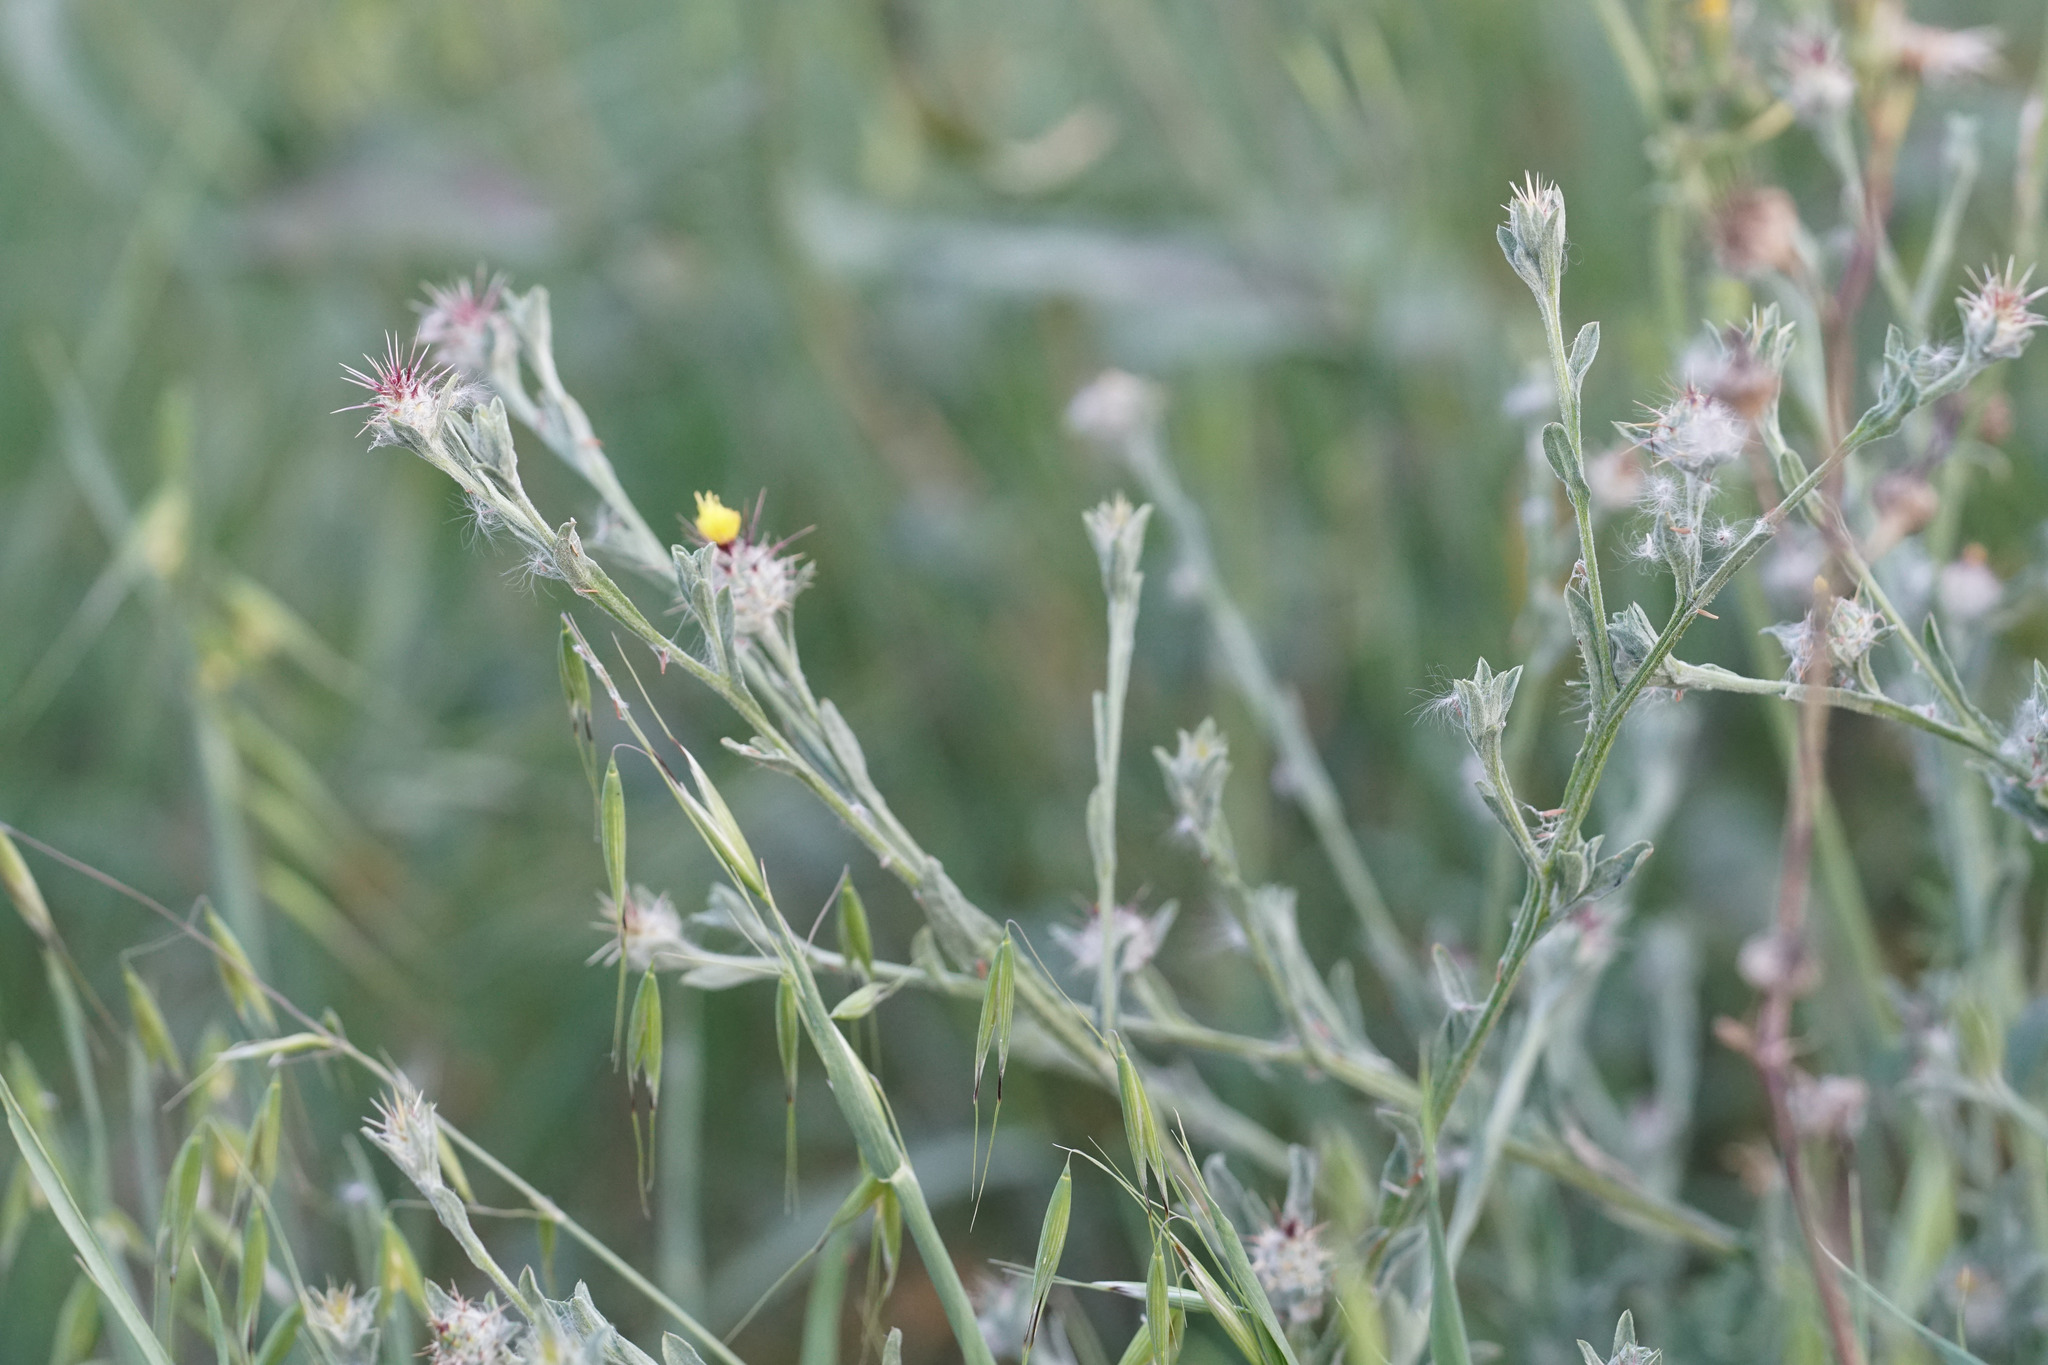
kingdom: Plantae
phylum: Tracheophyta
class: Magnoliopsida
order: Asterales
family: Asteraceae
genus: Centaurea
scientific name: Centaurea melitensis
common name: Maltese star-thistle
